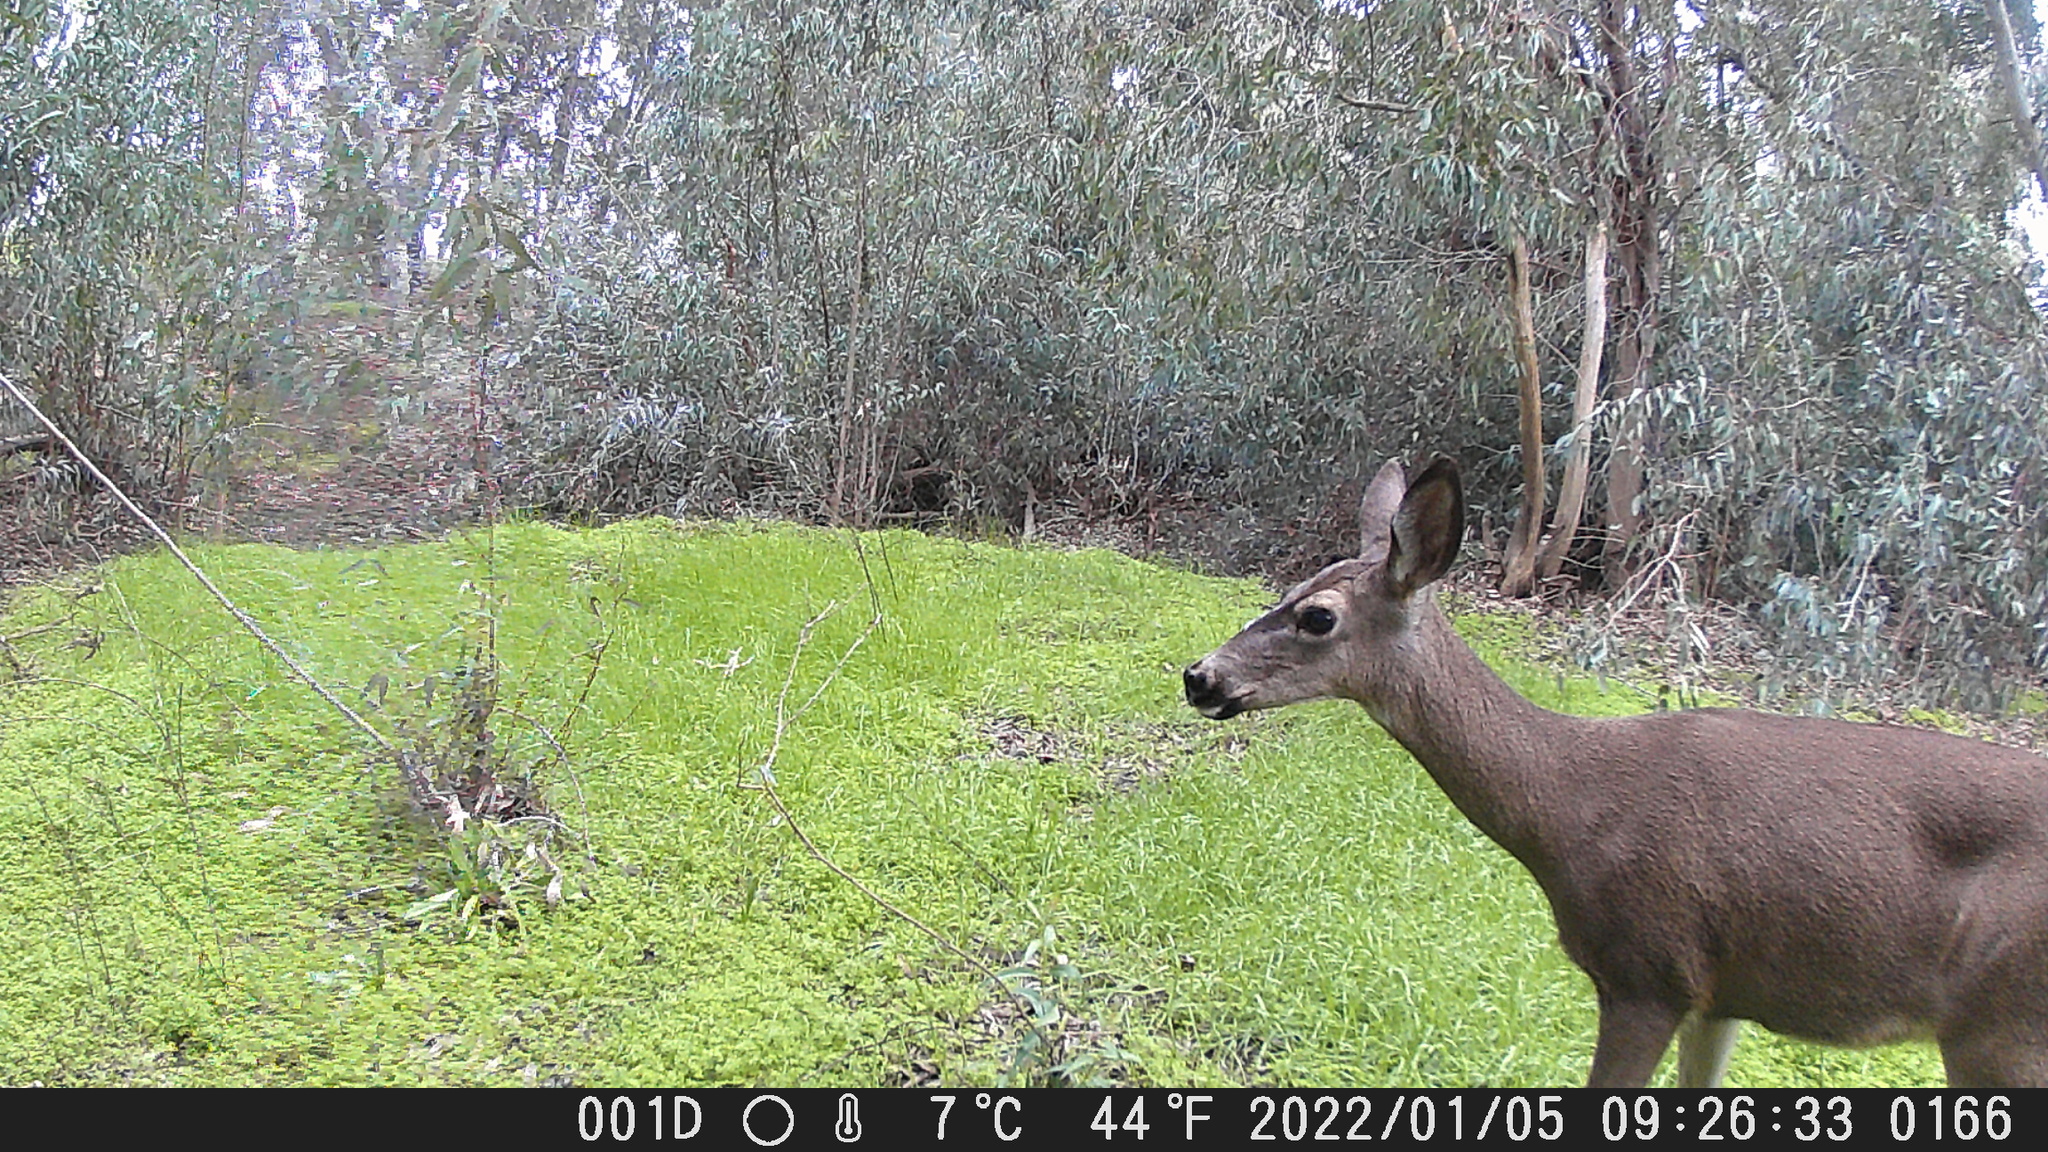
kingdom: Animalia
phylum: Chordata
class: Mammalia
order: Artiodactyla
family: Cervidae
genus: Odocoileus
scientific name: Odocoileus hemionus
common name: Mule deer
